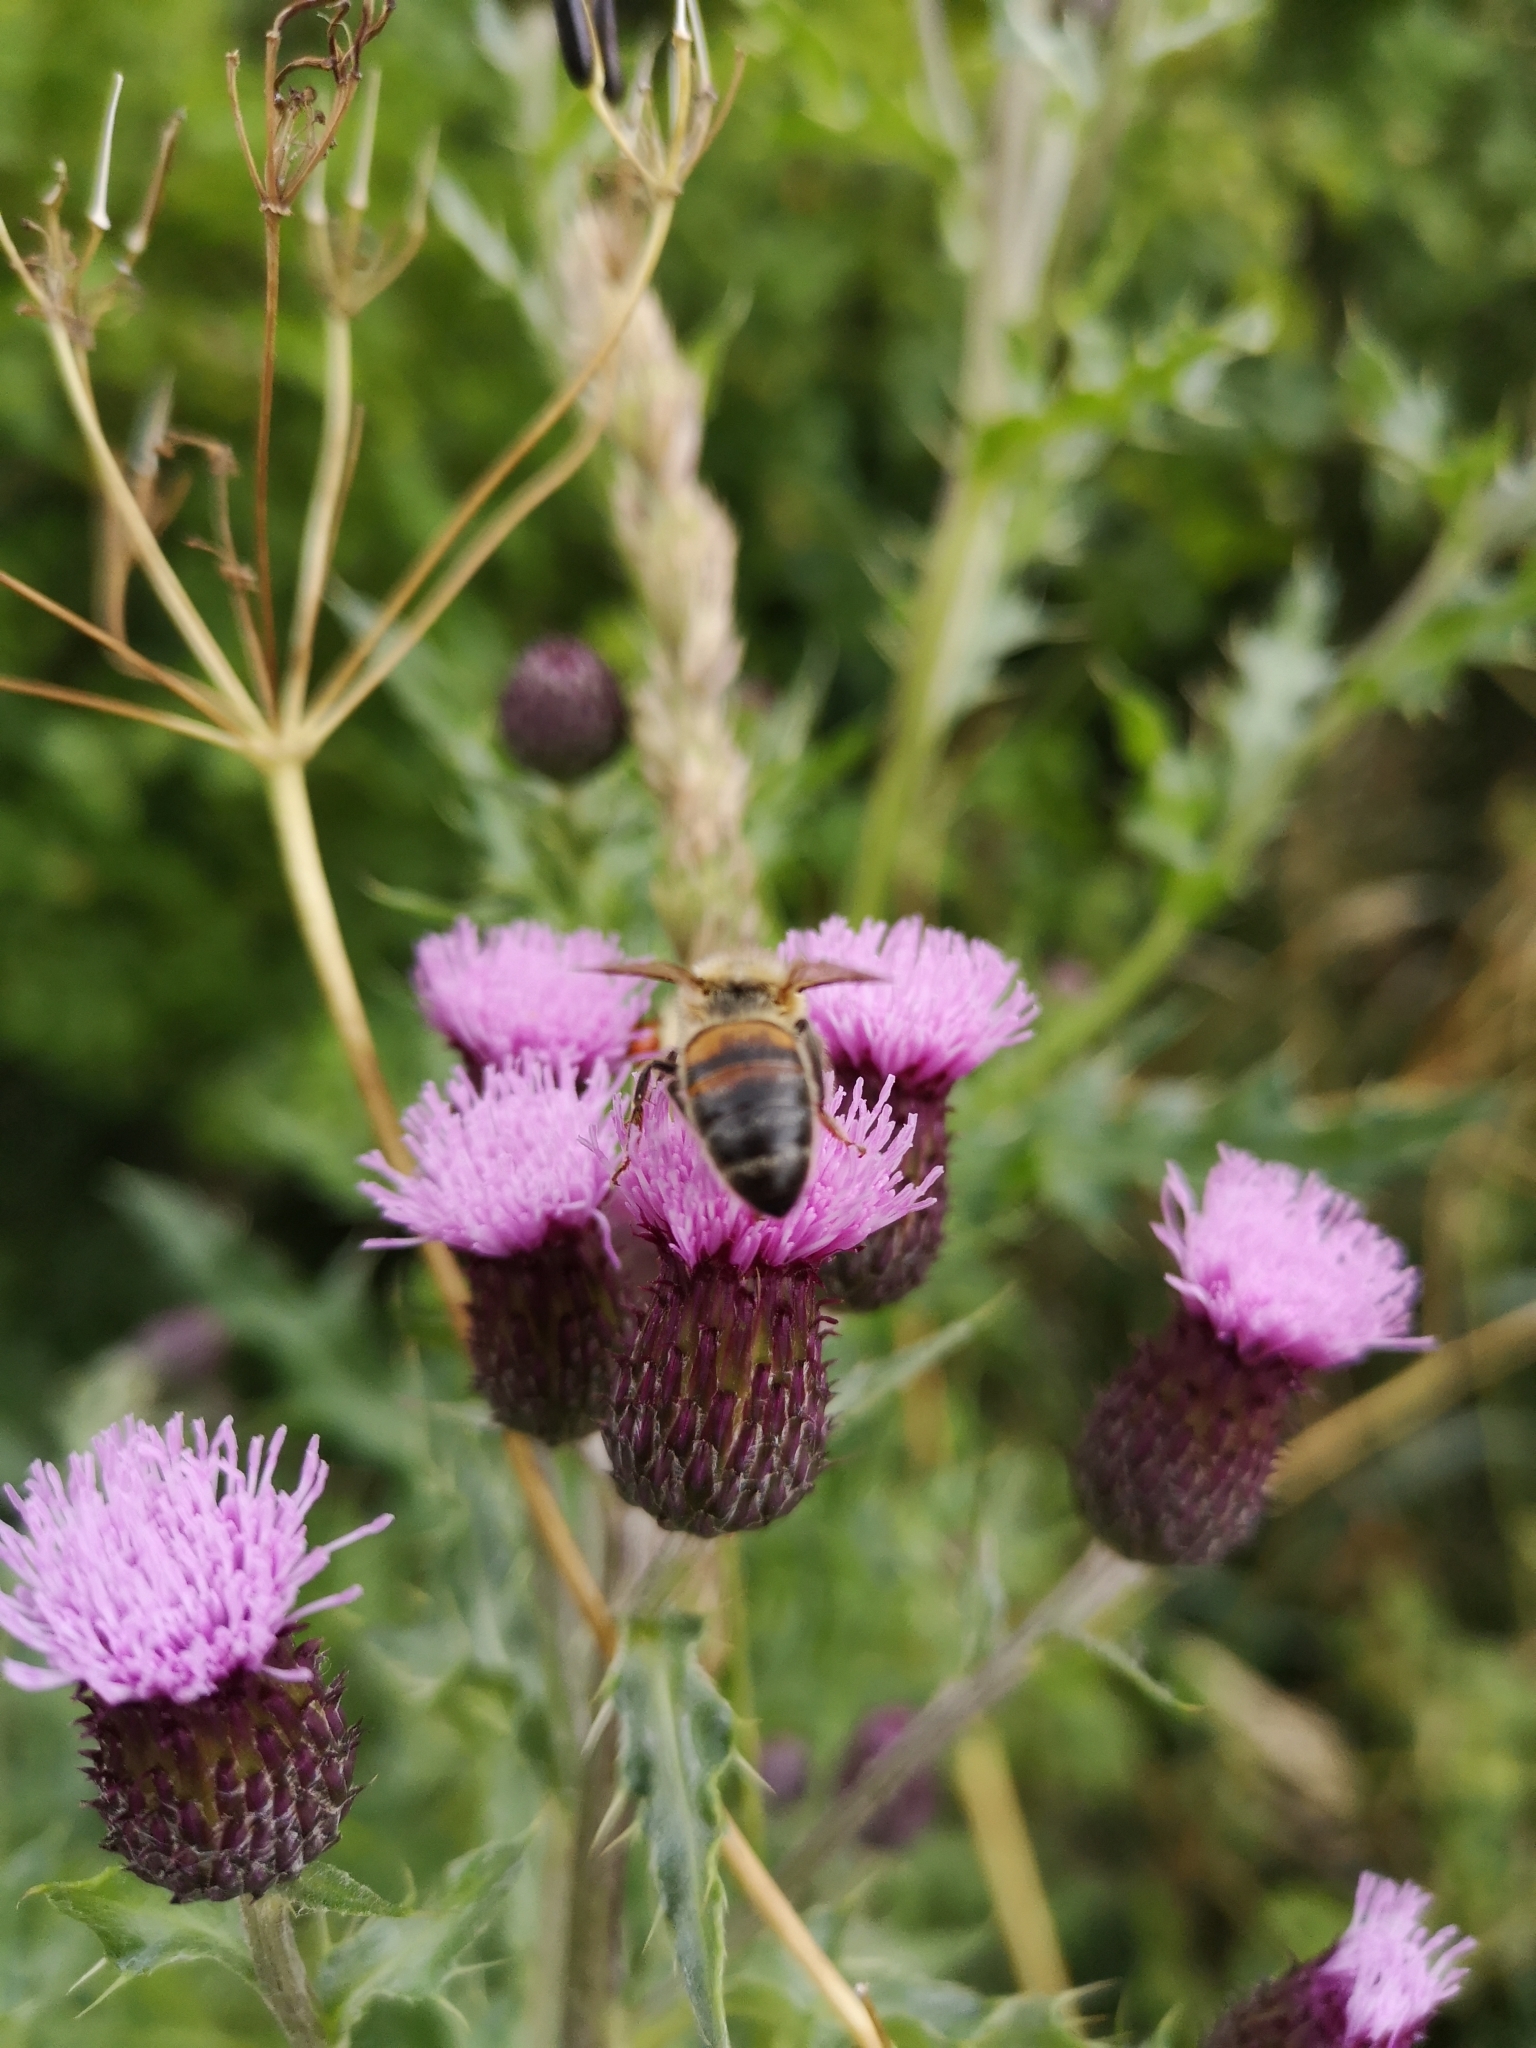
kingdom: Animalia
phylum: Arthropoda
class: Insecta
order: Hymenoptera
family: Apidae
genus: Apis
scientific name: Apis mellifera
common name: Honey bee
